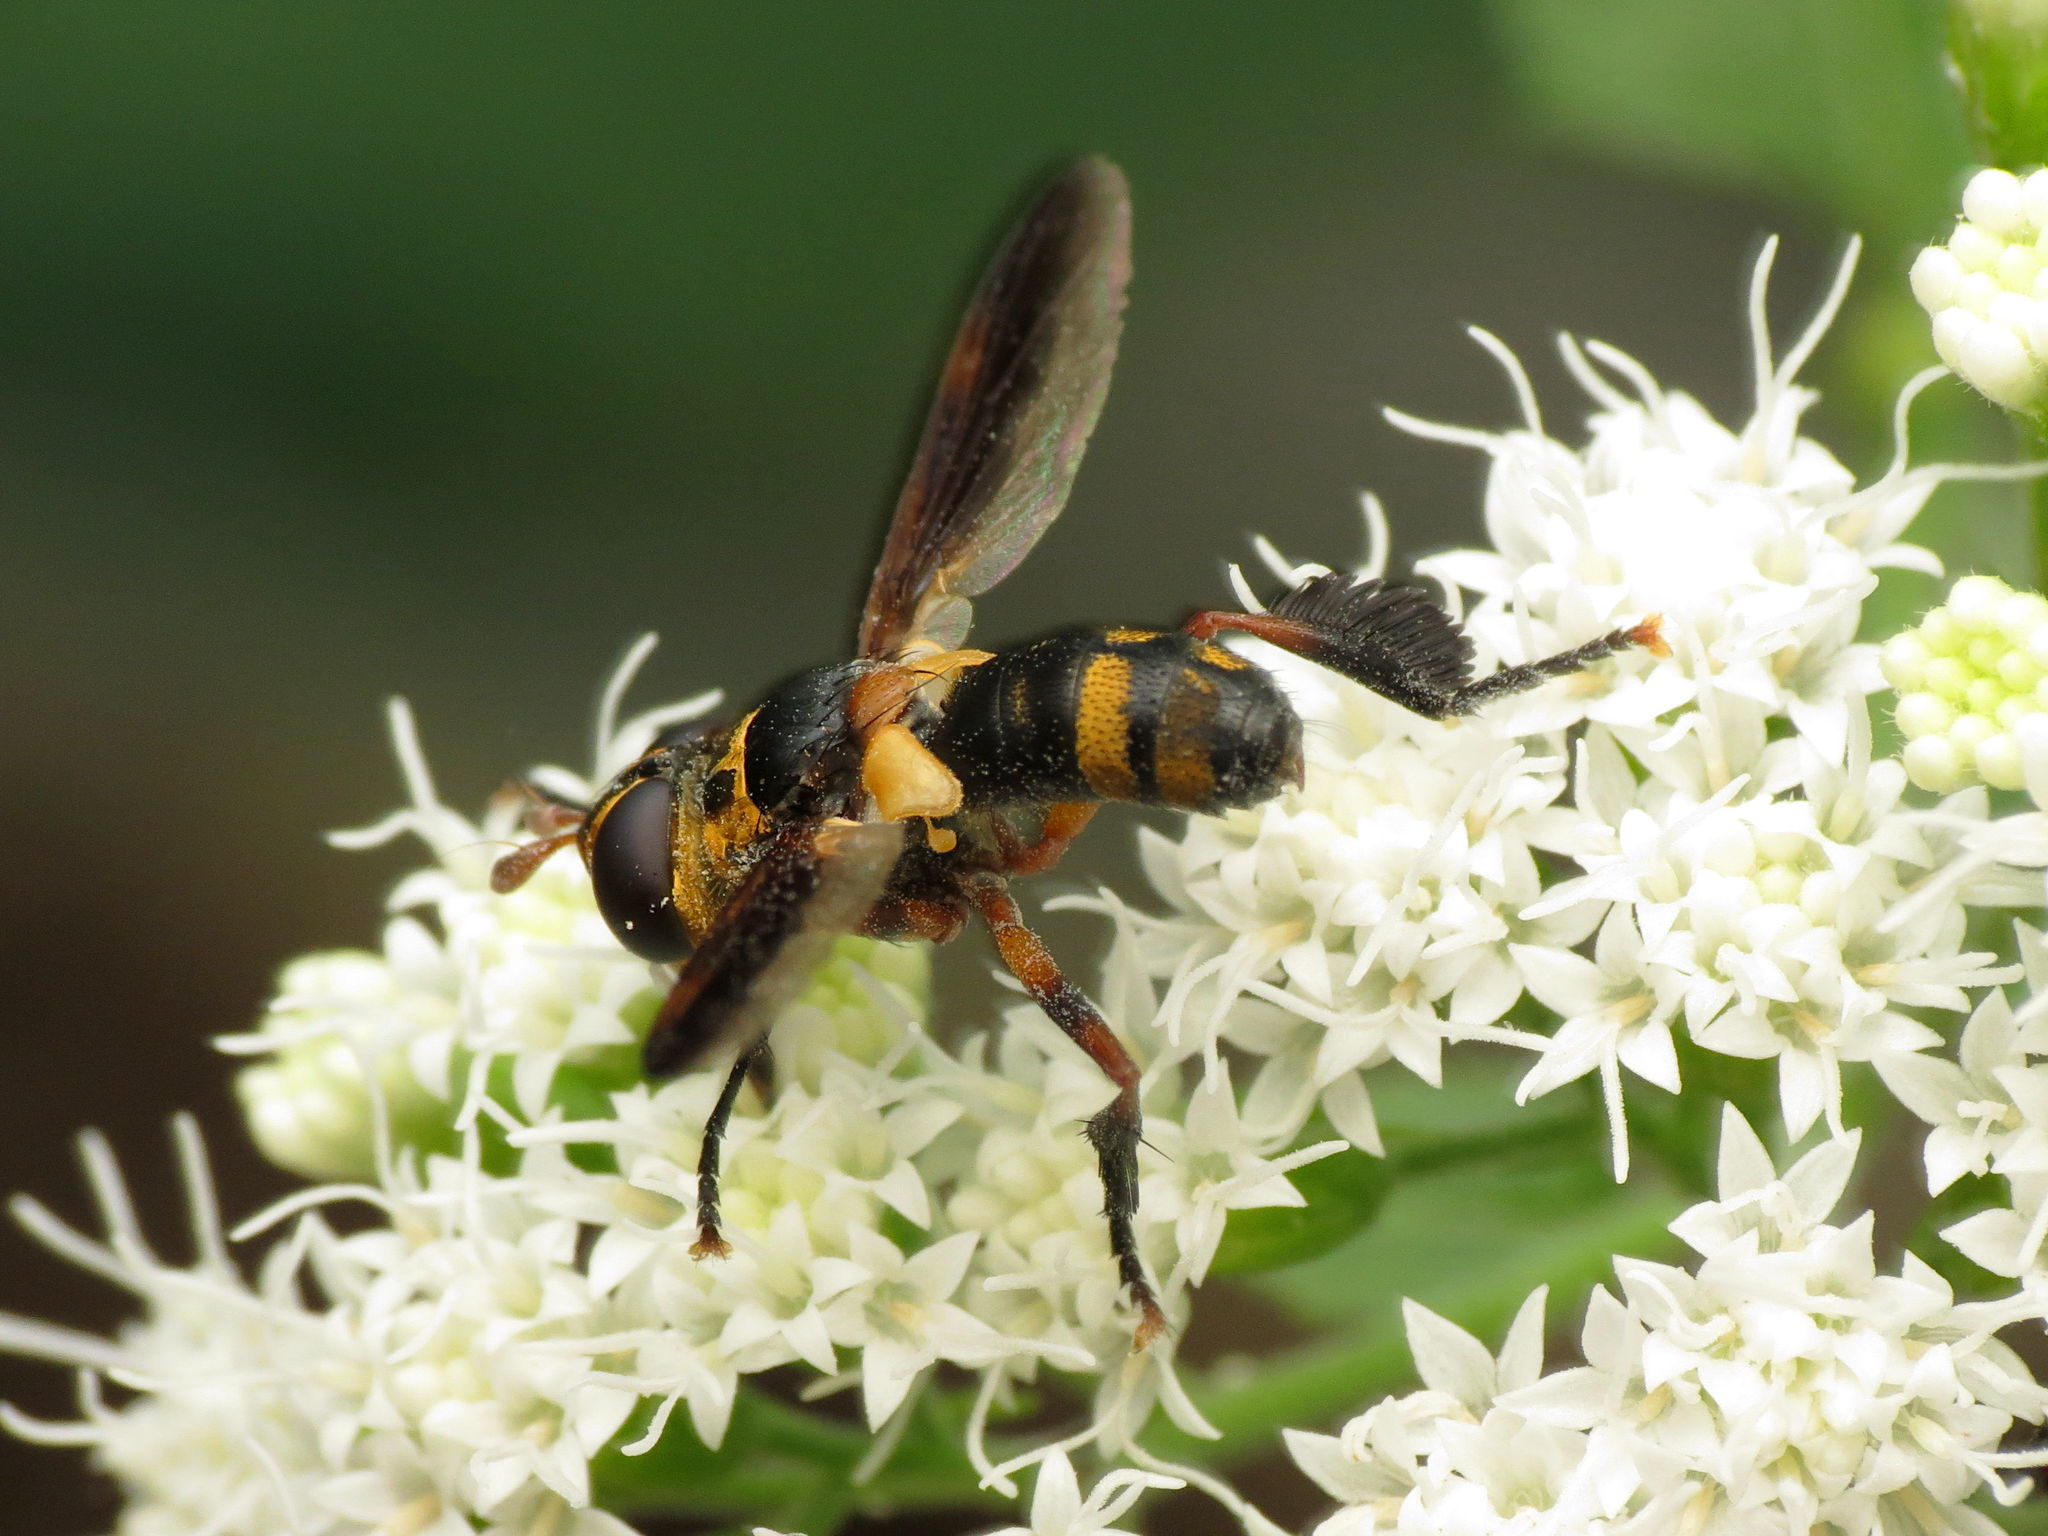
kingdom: Animalia
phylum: Arthropoda
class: Insecta
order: Diptera
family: Tachinidae
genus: Trichopoda
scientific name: Trichopoda plumipes
